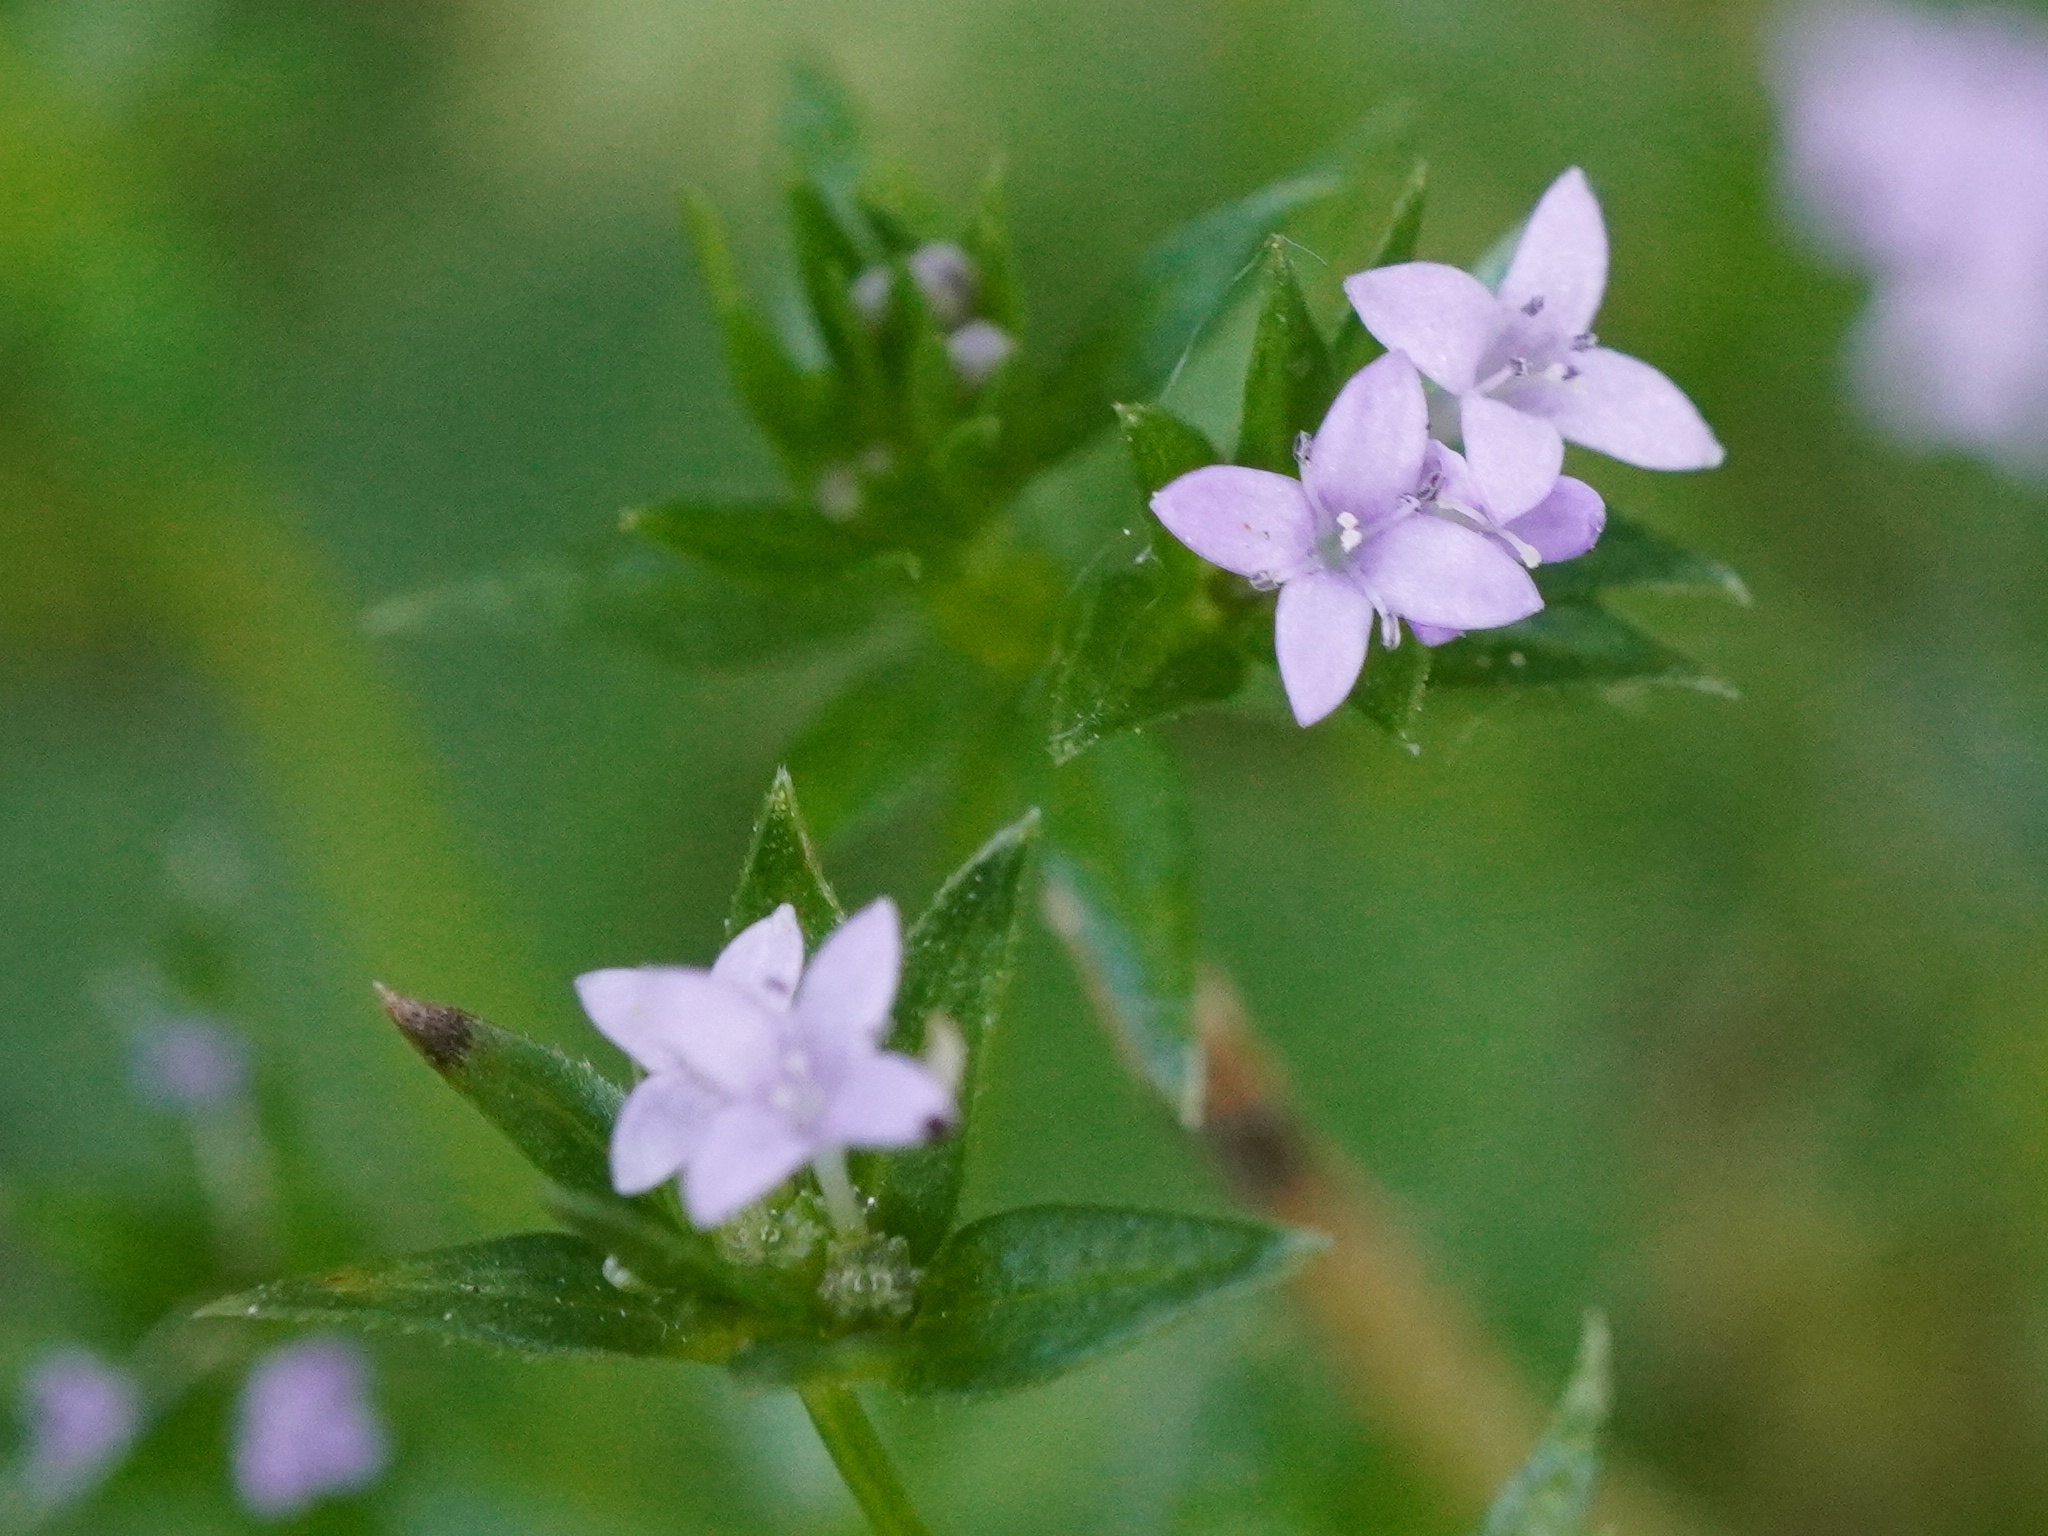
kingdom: Plantae
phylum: Tracheophyta
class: Magnoliopsida
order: Gentianales
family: Rubiaceae
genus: Sherardia
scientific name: Sherardia arvensis
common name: Field madder
